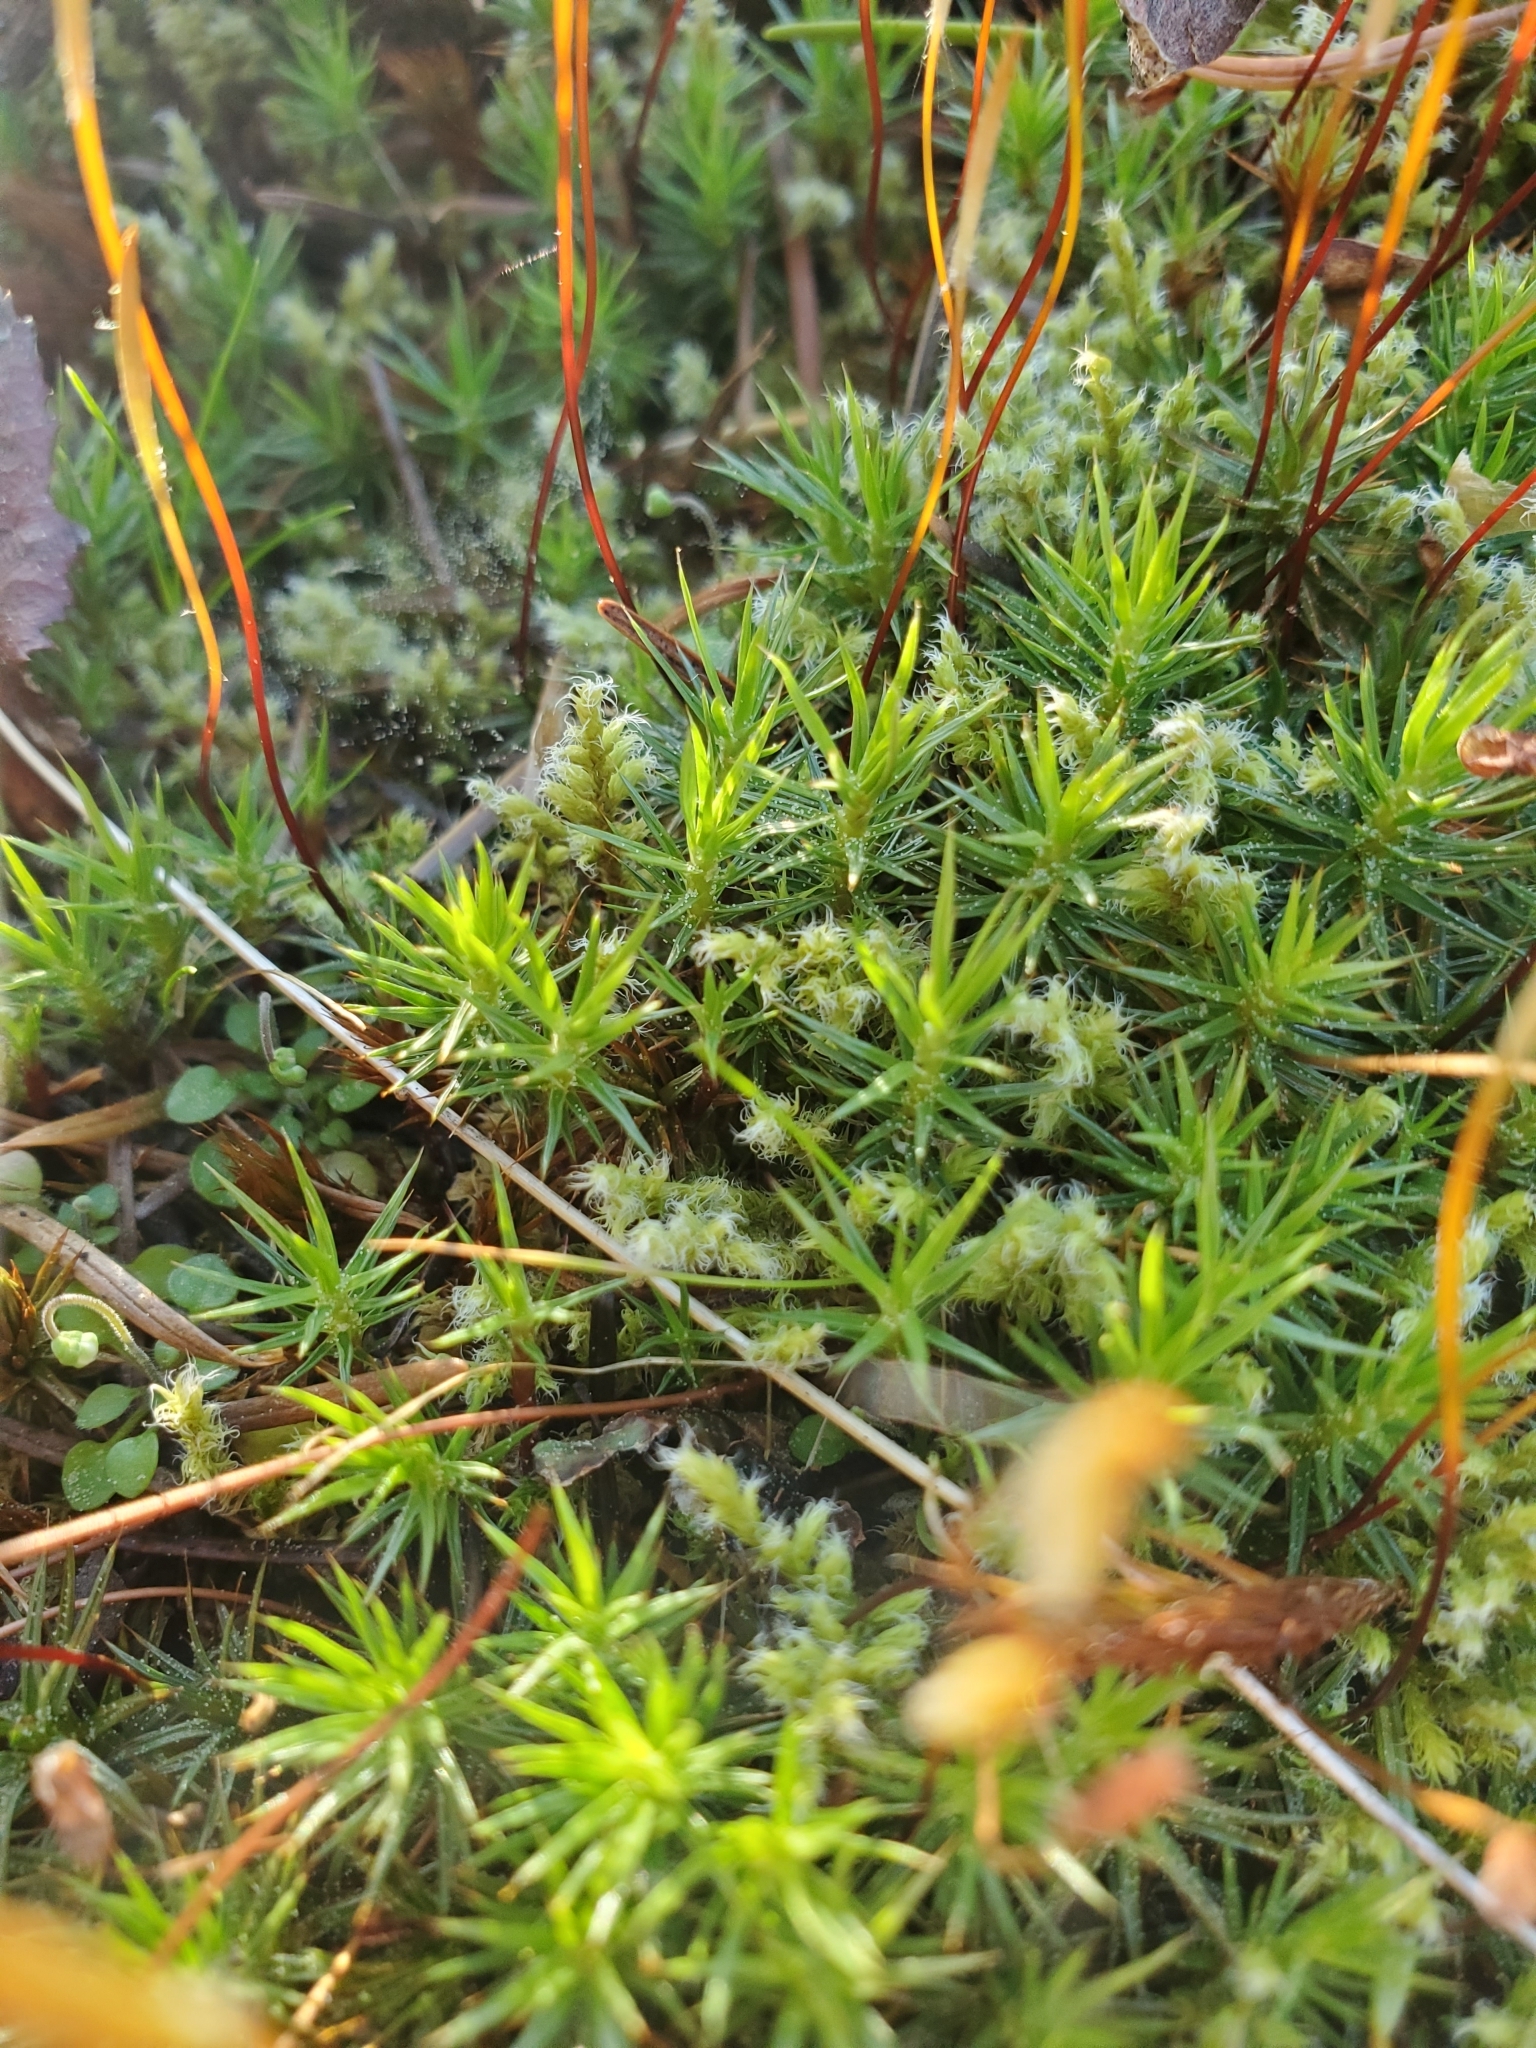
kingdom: Plantae
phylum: Bryophyta
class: Polytrichopsida
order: Polytrichales
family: Polytrichaceae
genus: Polytrichum
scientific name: Polytrichum juniperinum
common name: Juniper haircap moss
